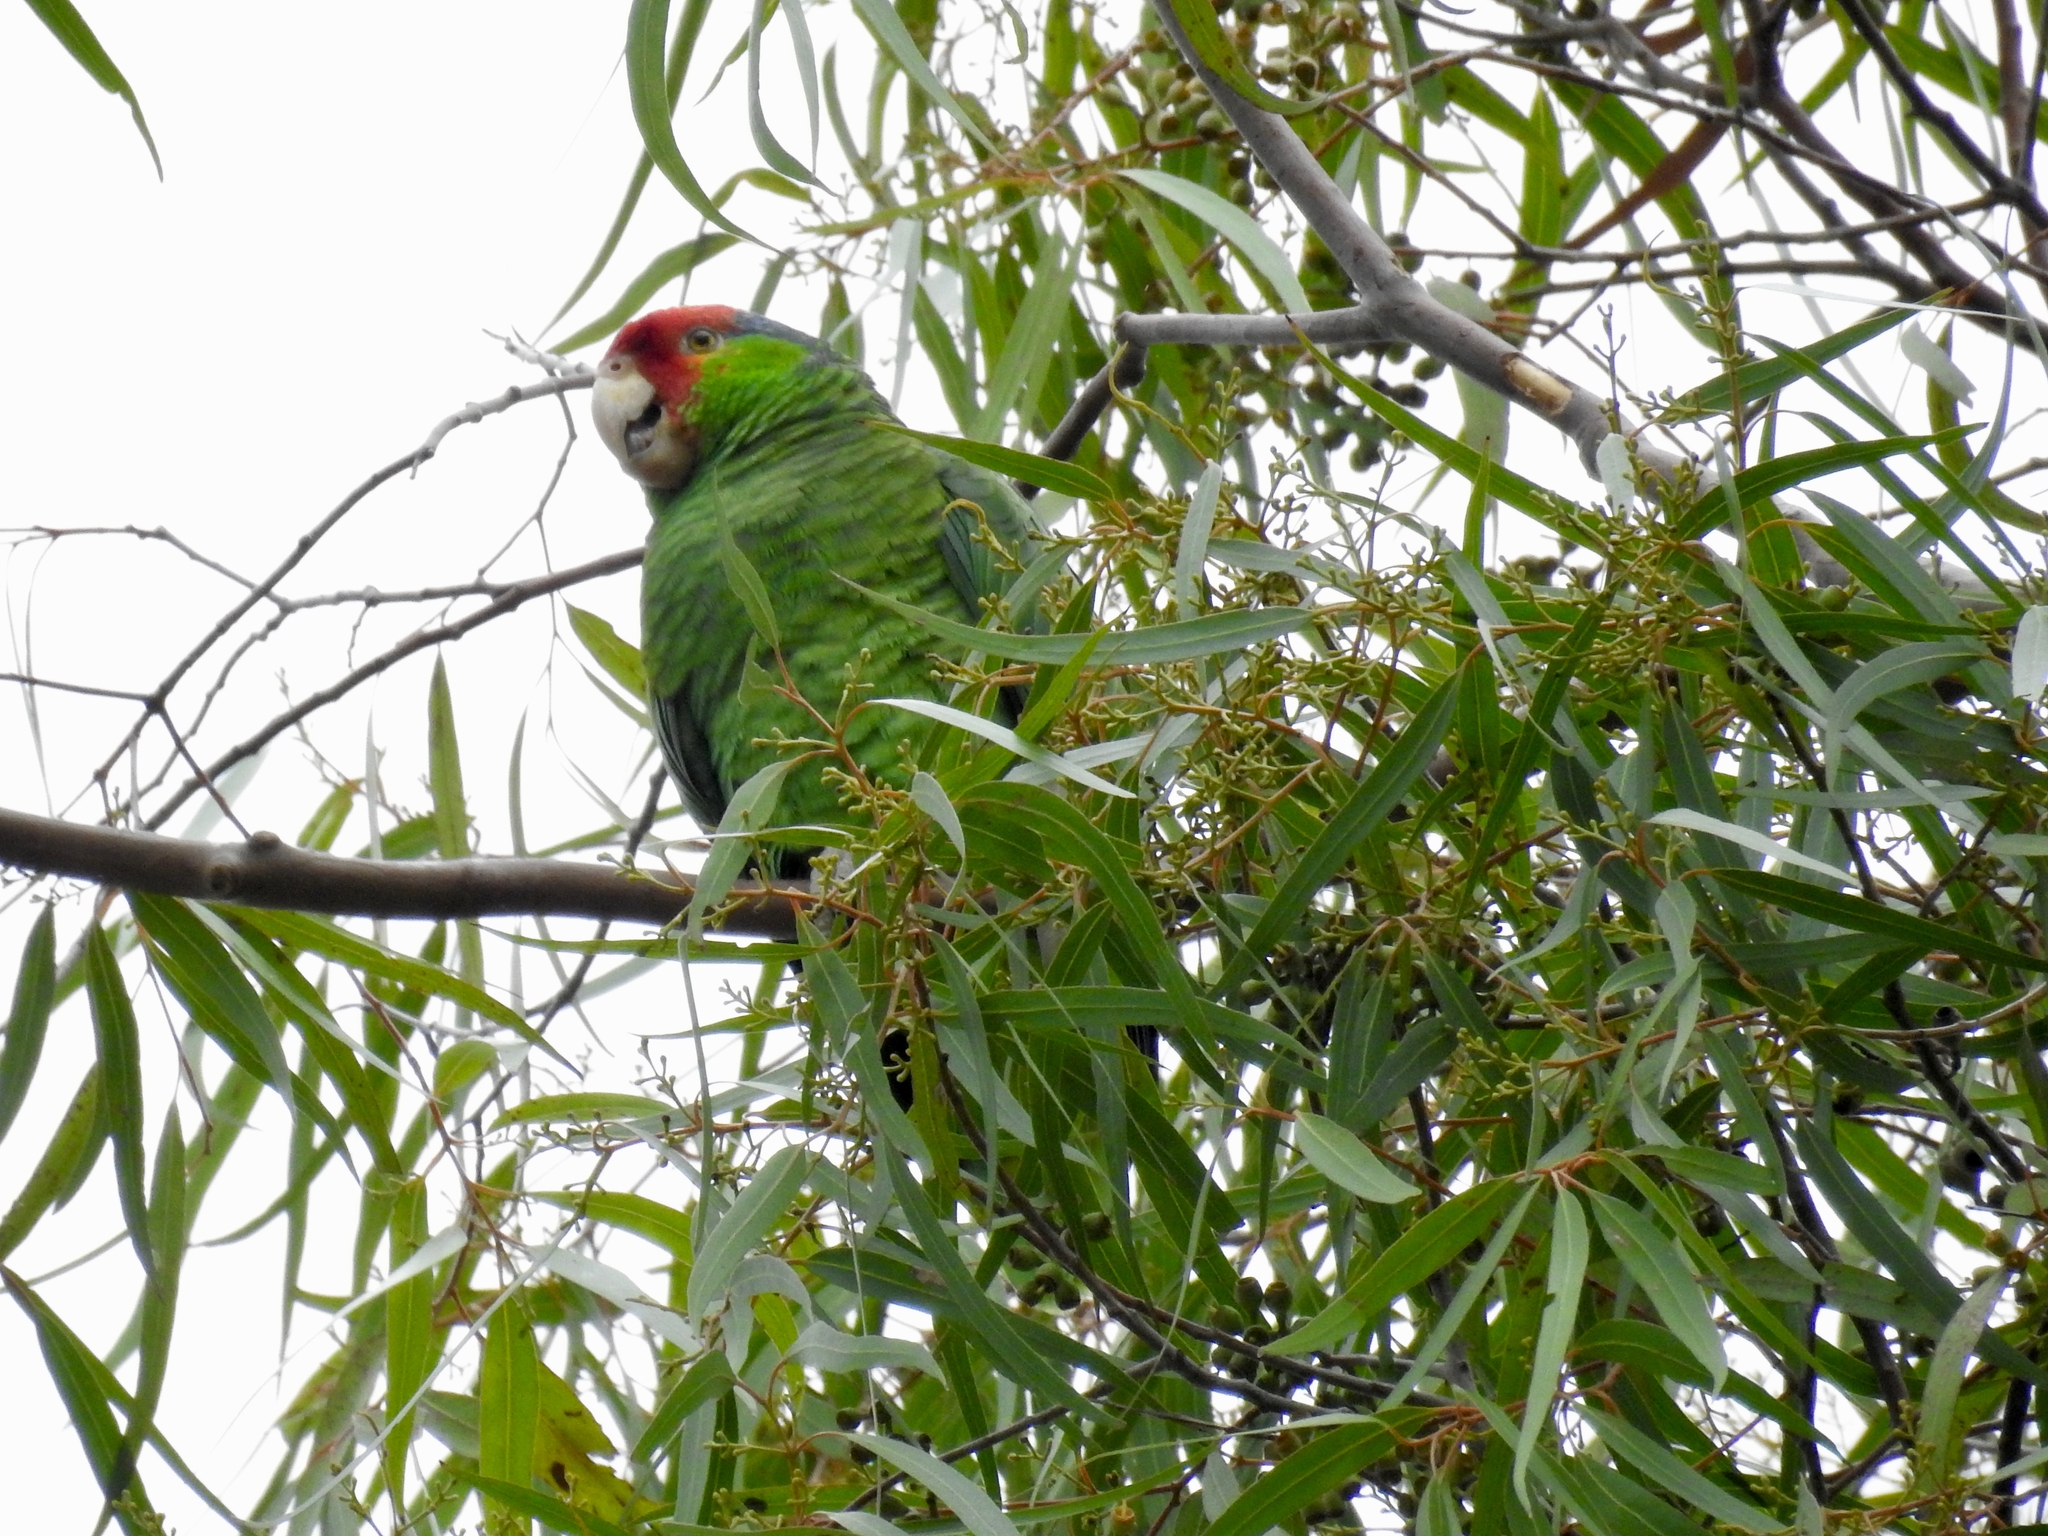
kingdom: Animalia
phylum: Chordata
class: Aves
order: Psittaciformes
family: Psittacidae
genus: Amazona
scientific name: Amazona viridigenalis
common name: Red-crowned amazon
